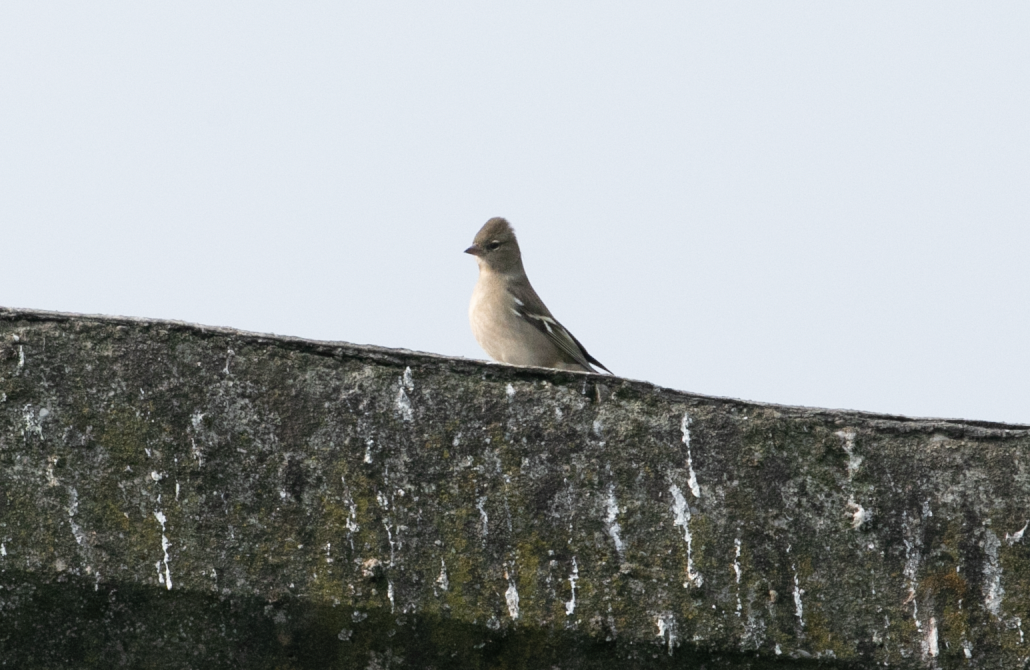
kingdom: Animalia
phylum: Chordata
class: Aves
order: Passeriformes
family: Fringillidae
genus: Fringilla
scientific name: Fringilla coelebs
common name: Common chaffinch
